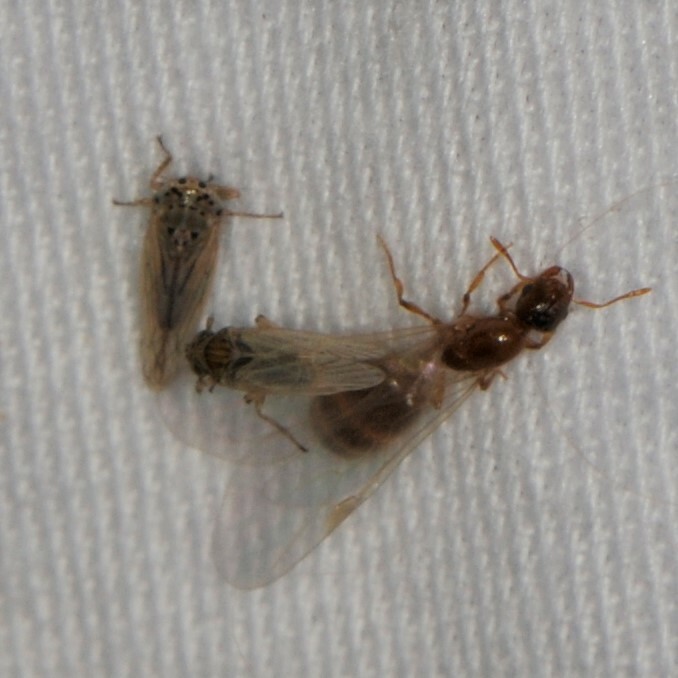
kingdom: Animalia
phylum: Arthropoda
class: Insecta
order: Hemiptera
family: Delphacidae
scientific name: Delphacidae
